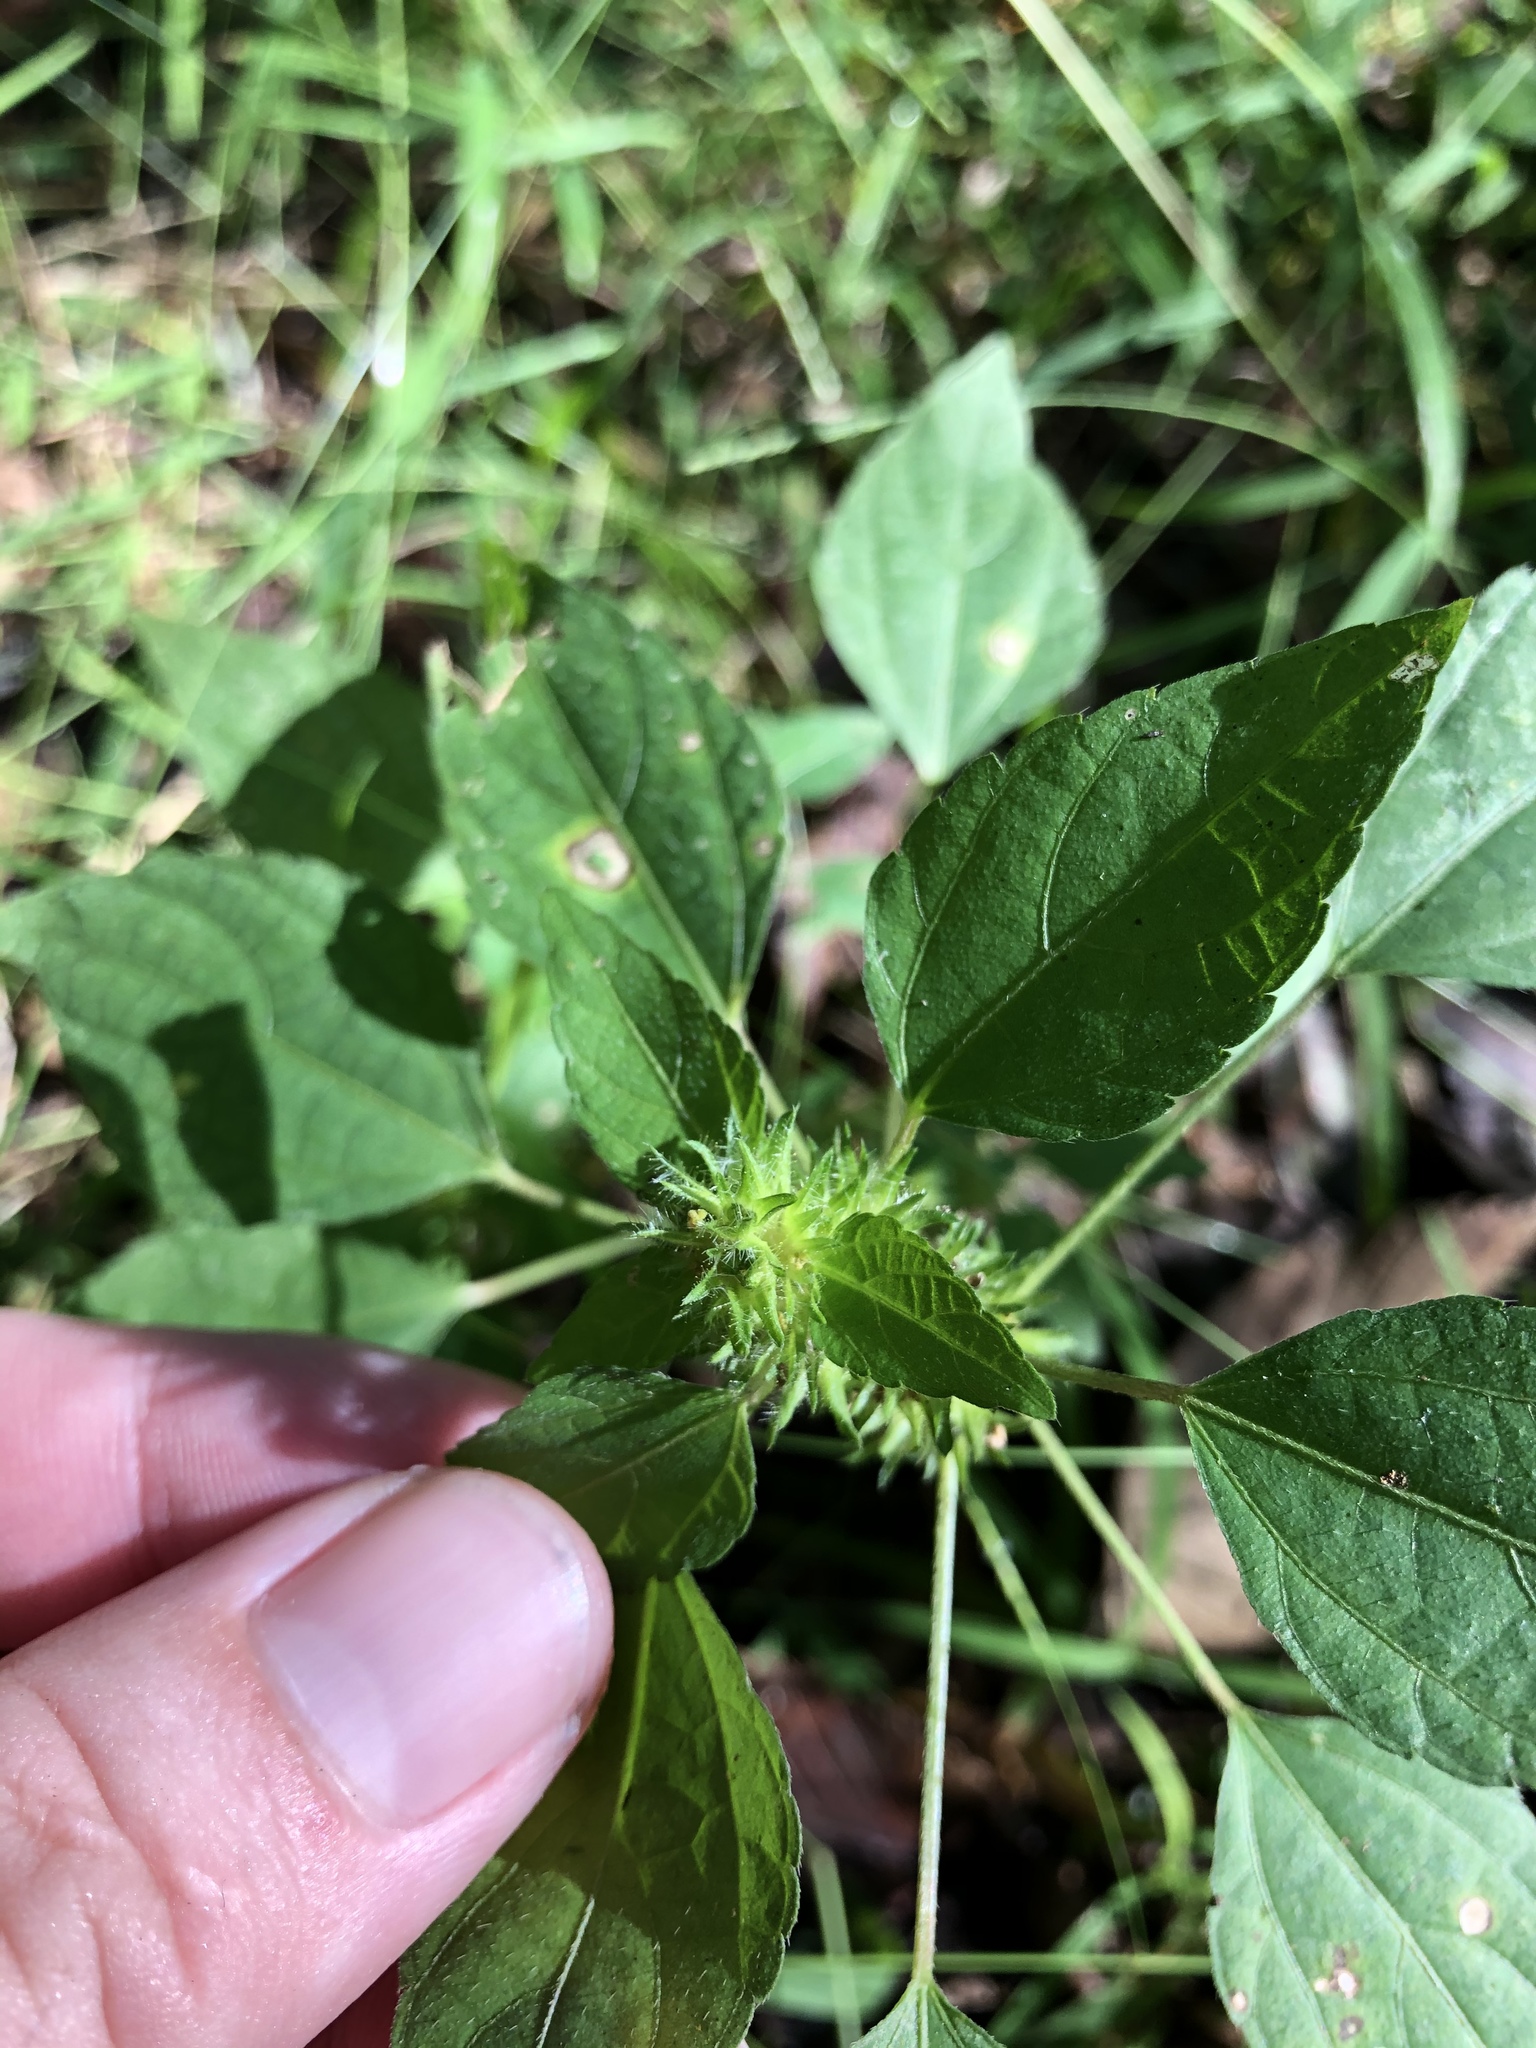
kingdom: Plantae
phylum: Tracheophyta
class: Magnoliopsida
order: Malpighiales
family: Euphorbiaceae
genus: Acalypha
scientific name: Acalypha virginica
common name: Virginia copperleaf
